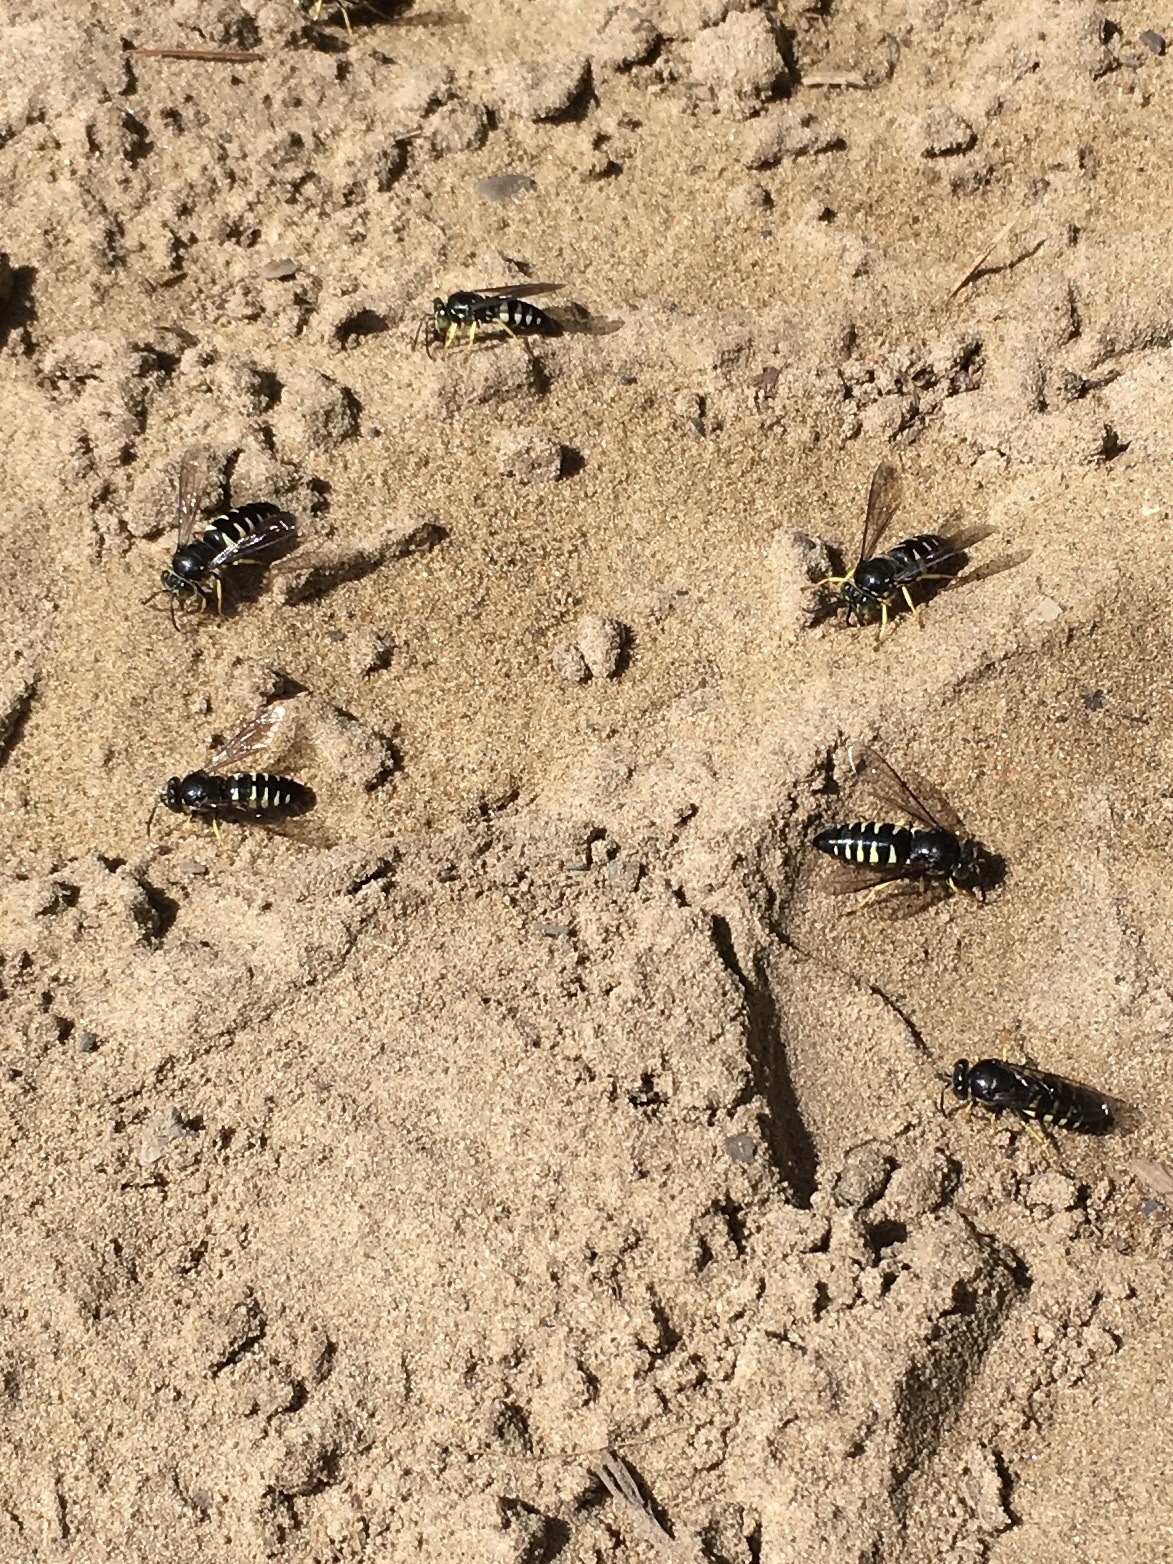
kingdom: Animalia
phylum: Arthropoda
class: Insecta
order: Hymenoptera
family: Crabronidae
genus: Bicyrtes
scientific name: Bicyrtes quadrifasciatus
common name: Four-banded stink bug hunter wasp
